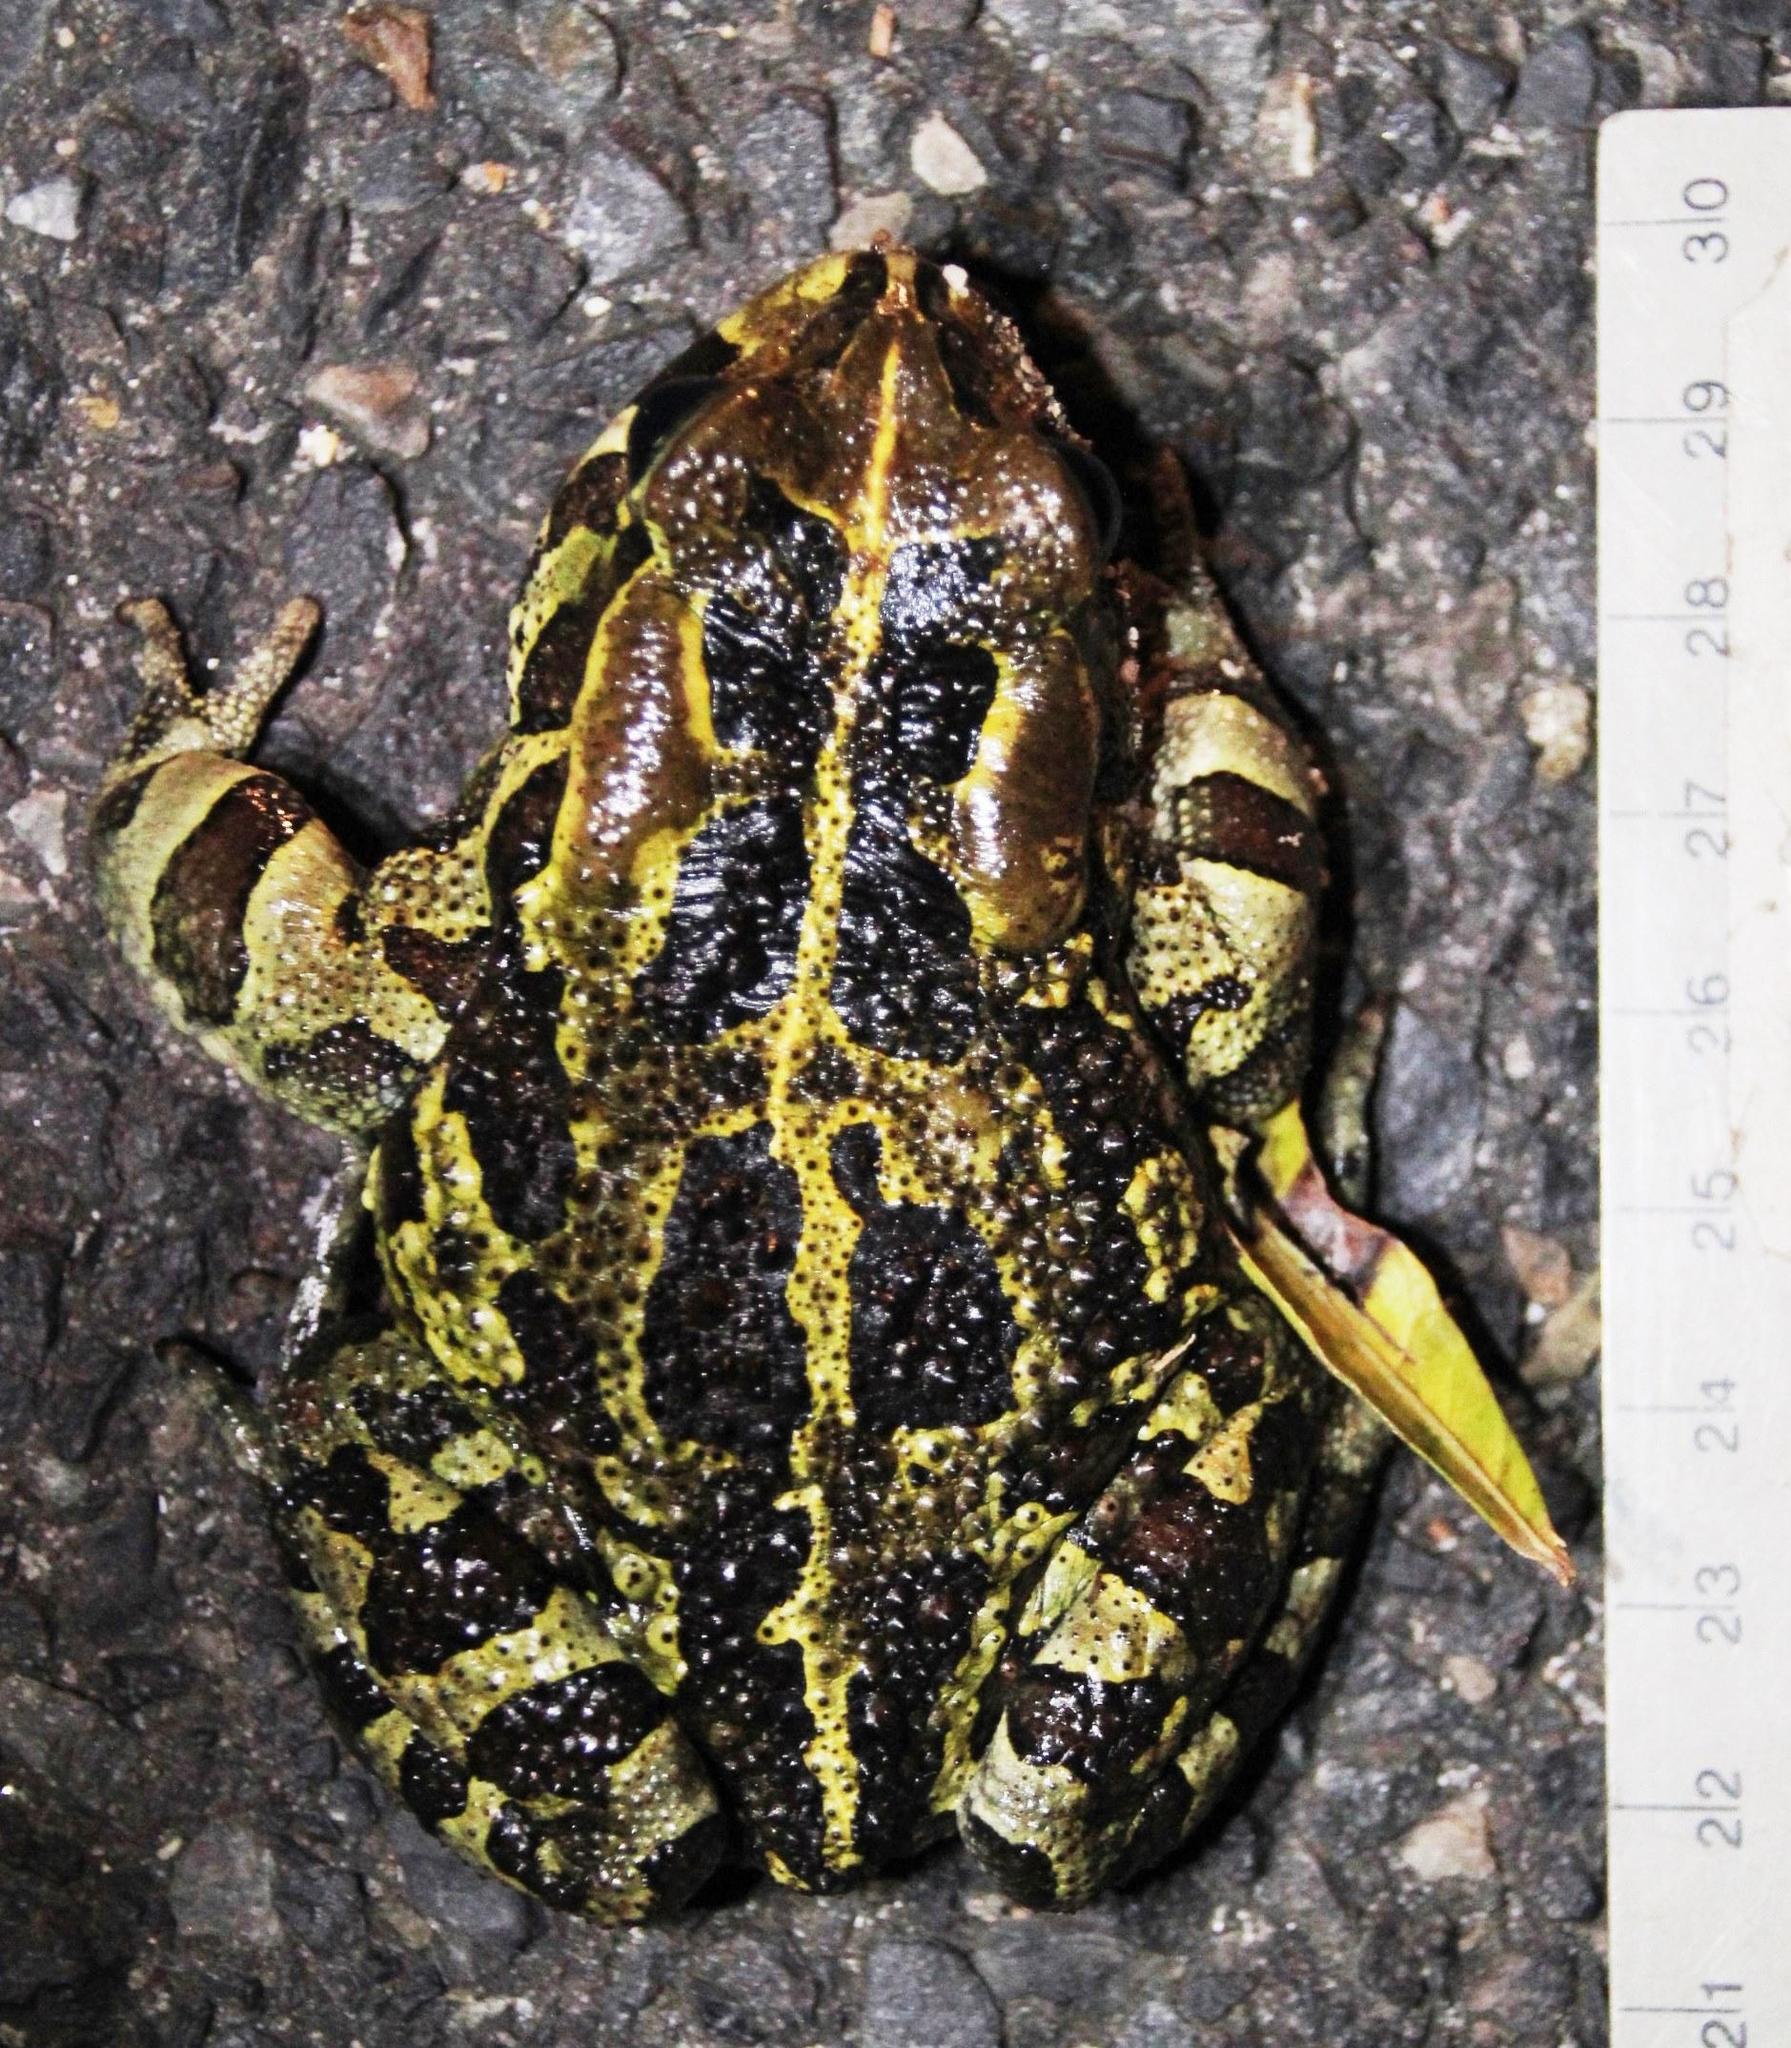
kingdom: Animalia
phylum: Chordata
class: Amphibia
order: Anura
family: Bufonidae
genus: Sclerophrys
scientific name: Sclerophrys pantherina
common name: Panther toad
